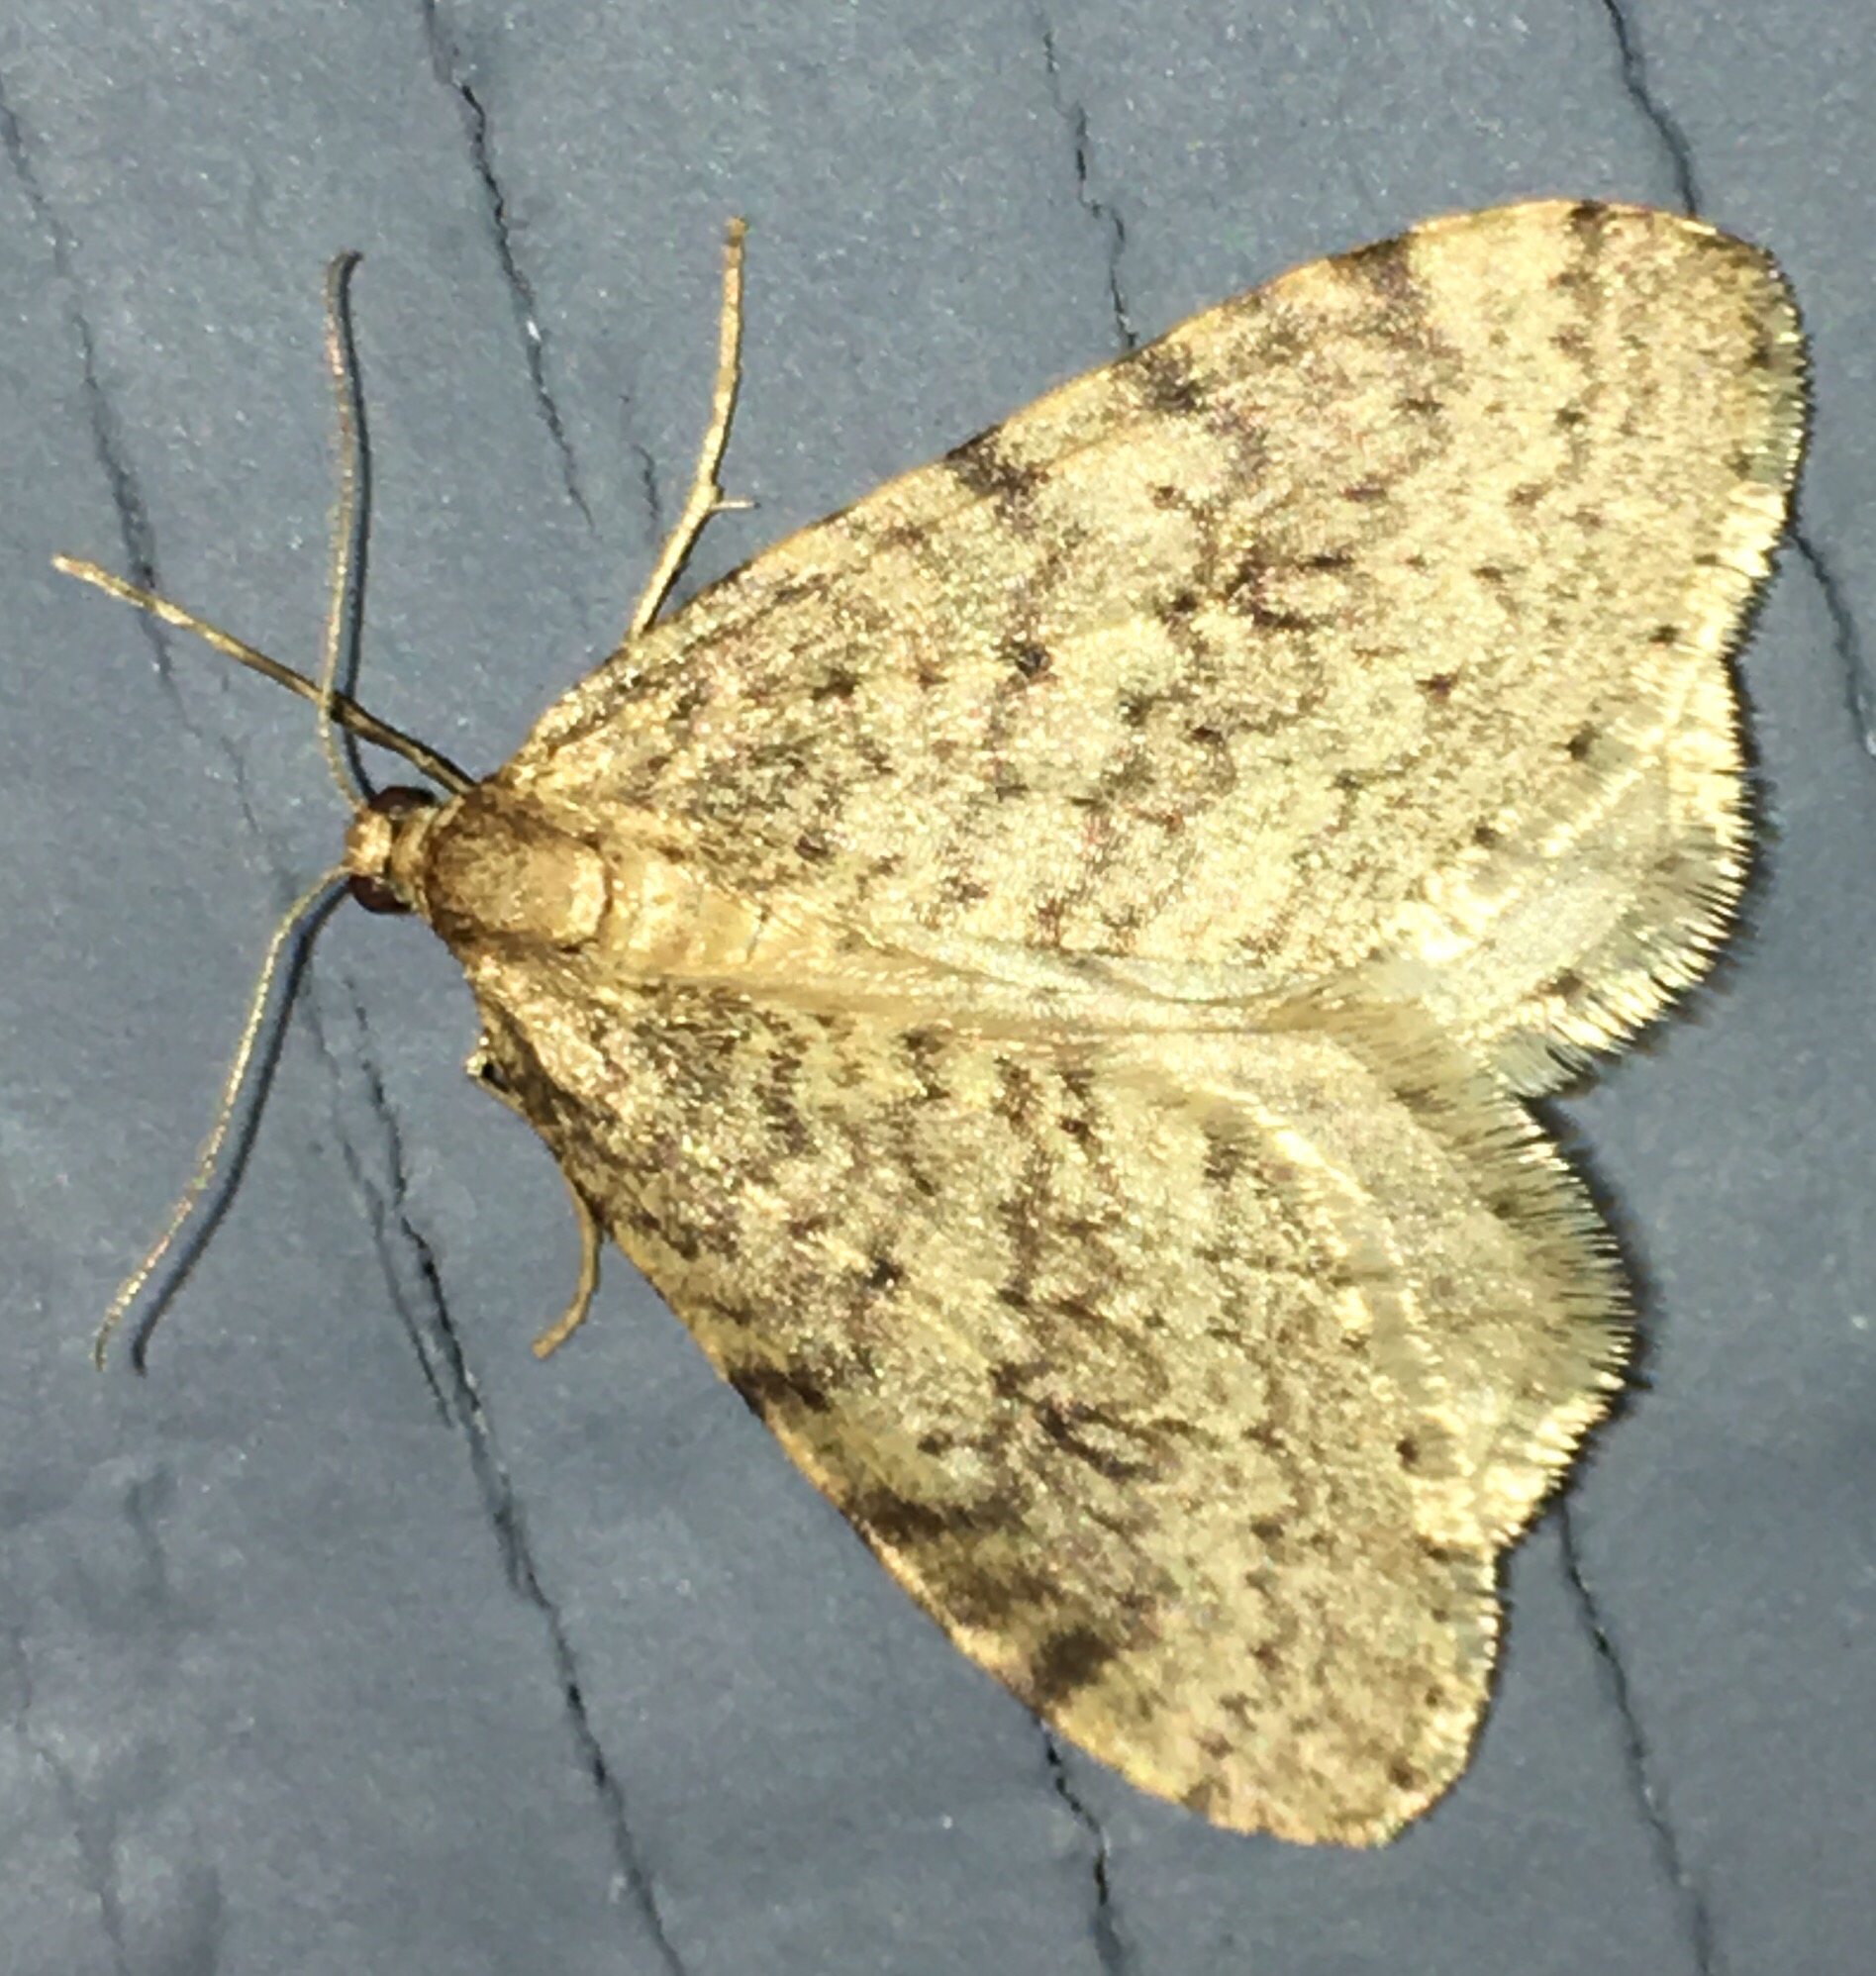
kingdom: Animalia
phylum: Arthropoda
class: Insecta
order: Lepidoptera
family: Geometridae
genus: Operophtera
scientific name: Operophtera bruceata
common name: Bruce spanworm
